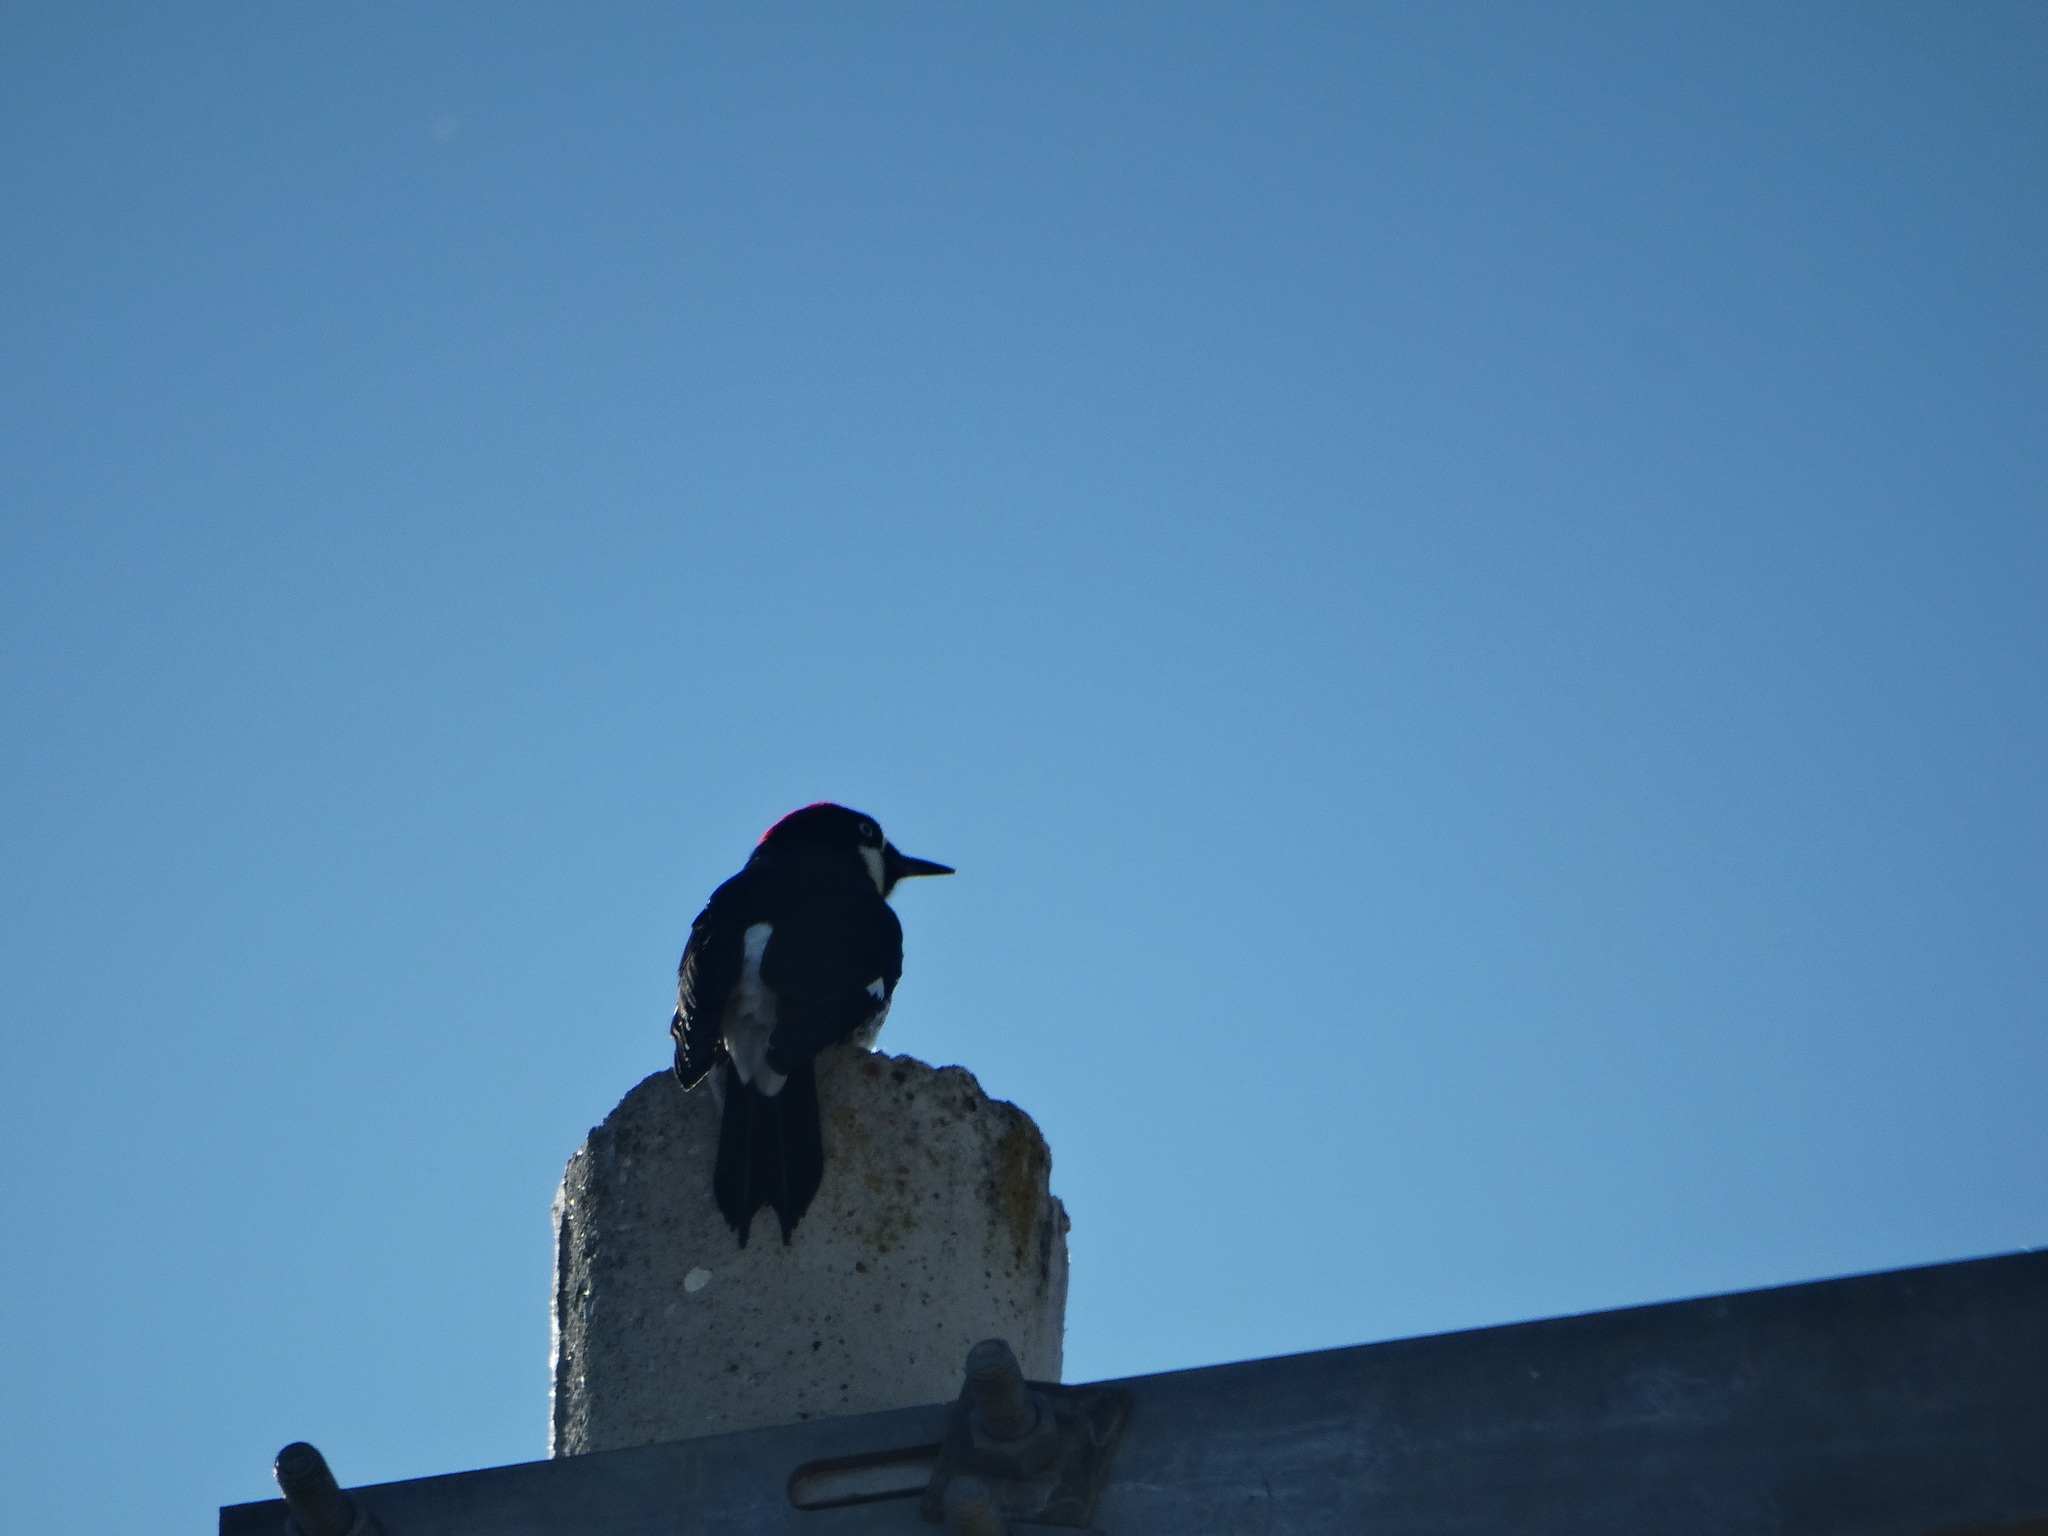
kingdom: Animalia
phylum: Chordata
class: Aves
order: Piciformes
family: Picidae
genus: Melanerpes
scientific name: Melanerpes formicivorus
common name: Acorn woodpecker
